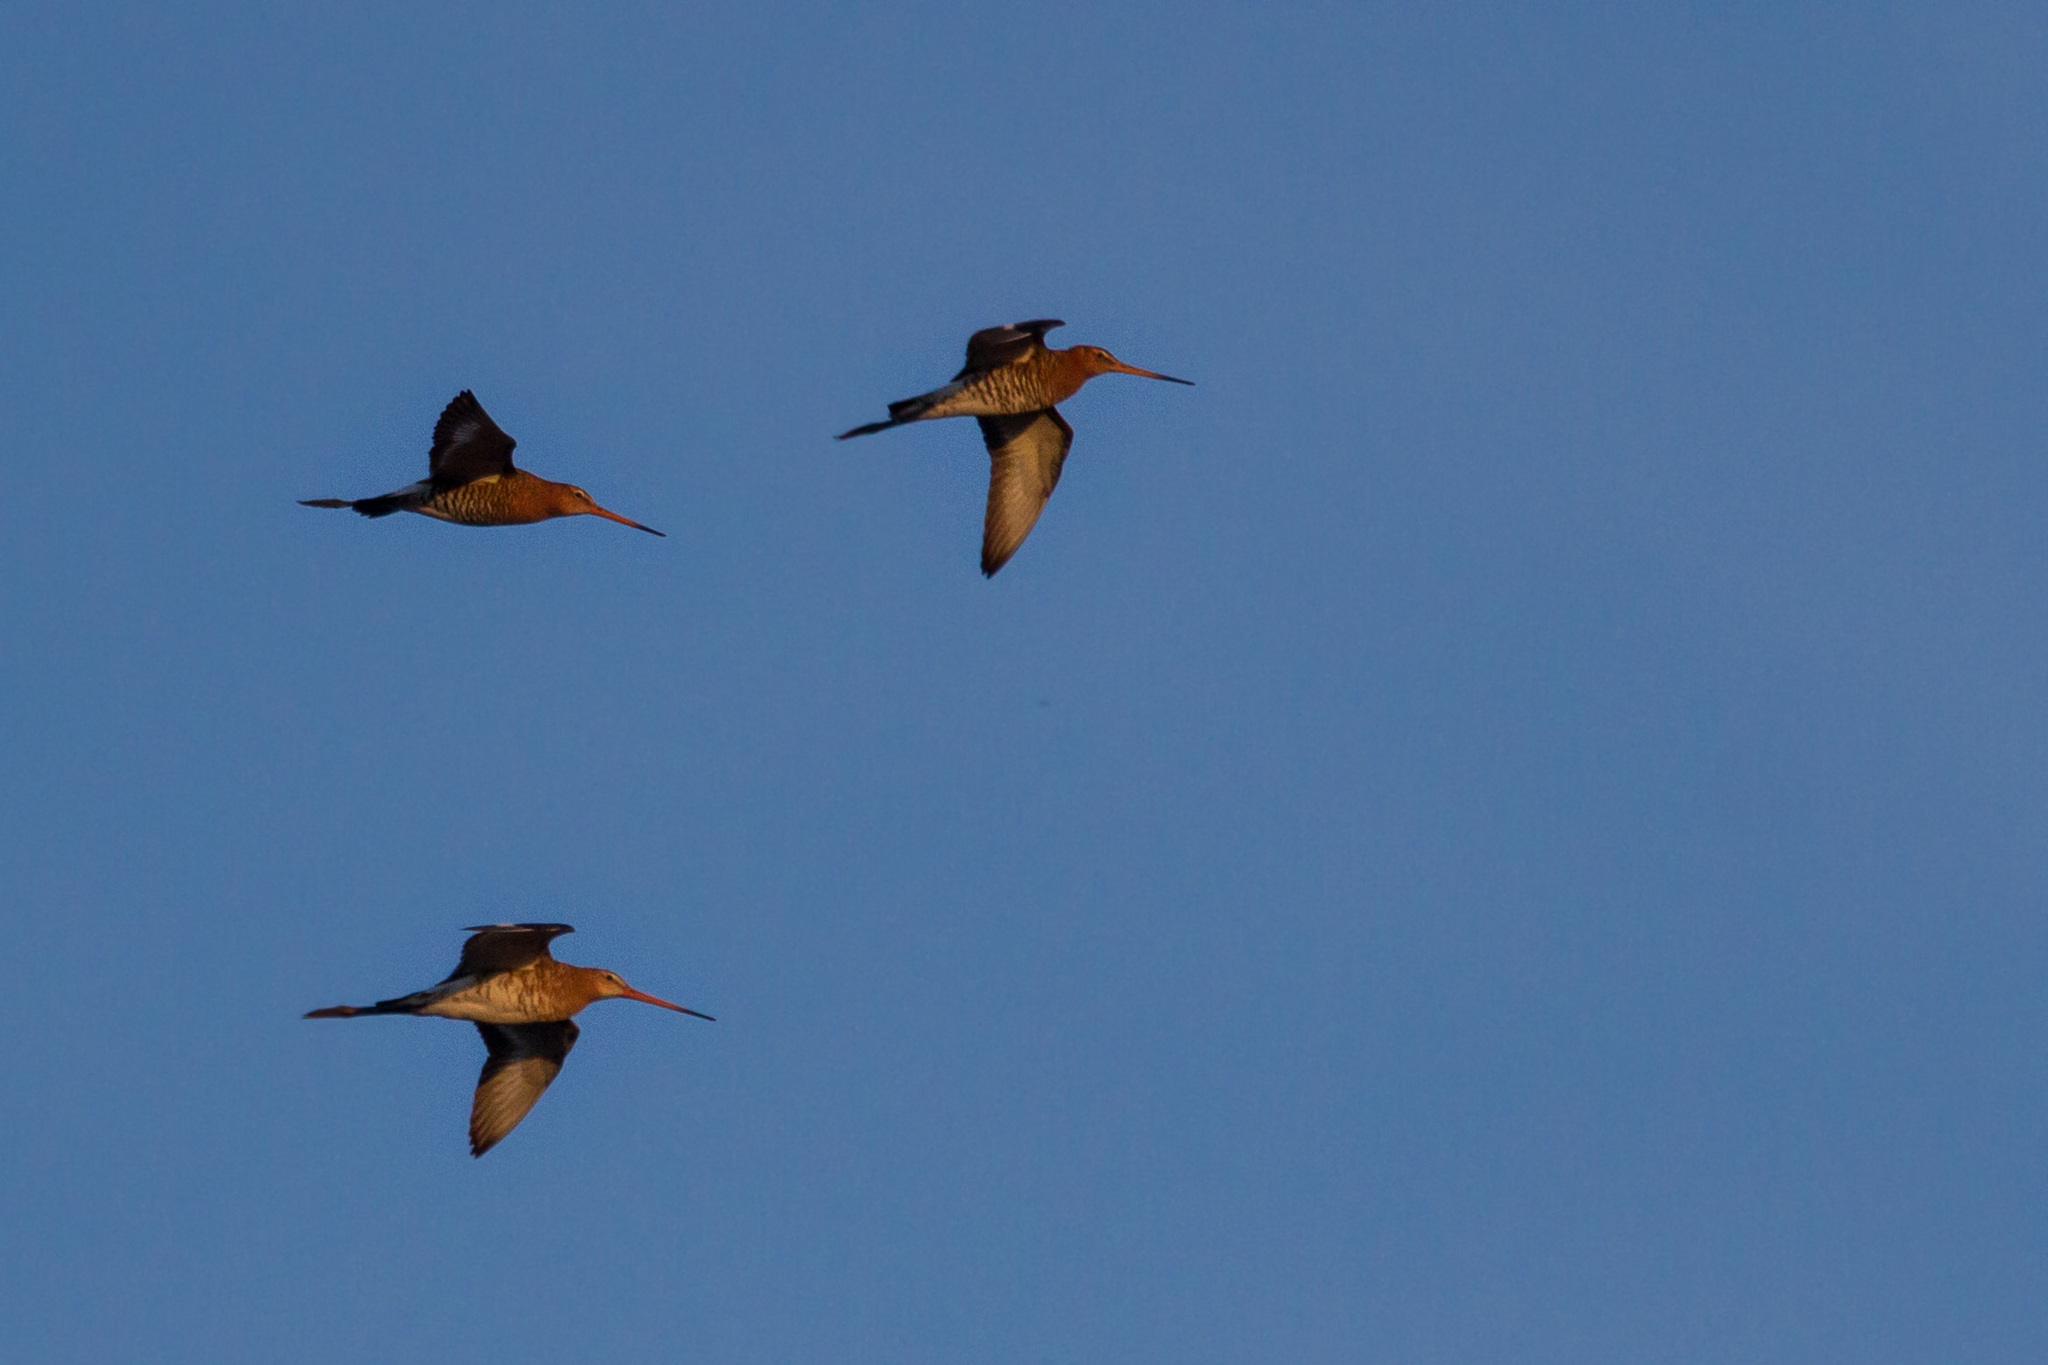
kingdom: Animalia
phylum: Chordata
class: Aves
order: Charadriiformes
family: Scolopacidae
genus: Limosa
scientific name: Limosa limosa
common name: Black-tailed godwit
